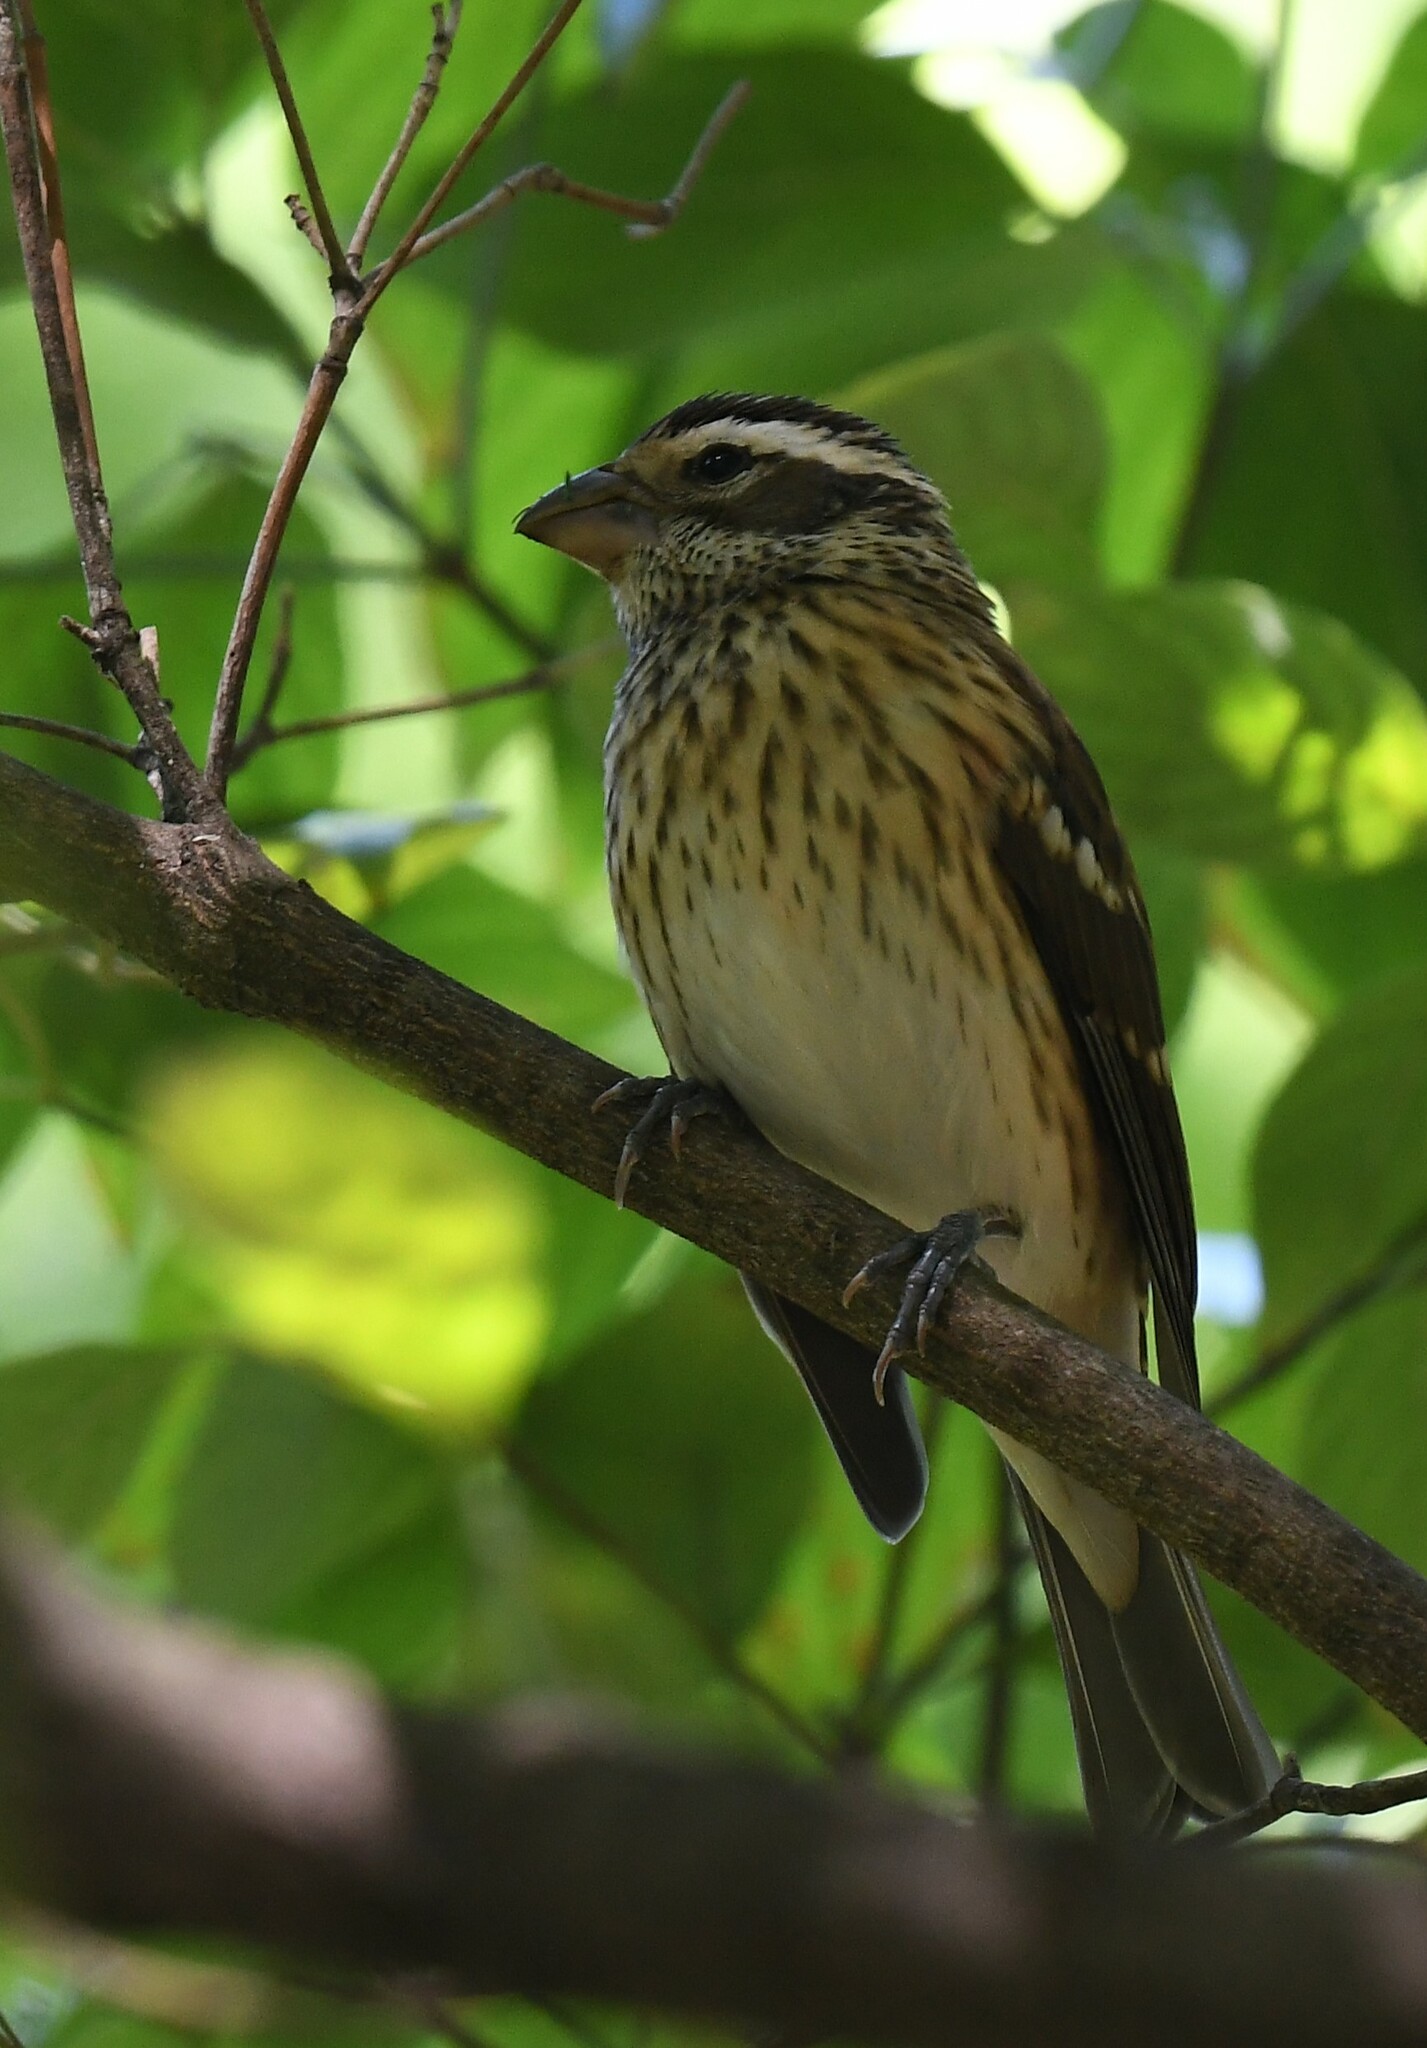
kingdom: Animalia
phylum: Chordata
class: Aves
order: Passeriformes
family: Cardinalidae
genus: Pheucticus
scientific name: Pheucticus ludovicianus
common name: Rose-breasted grosbeak
